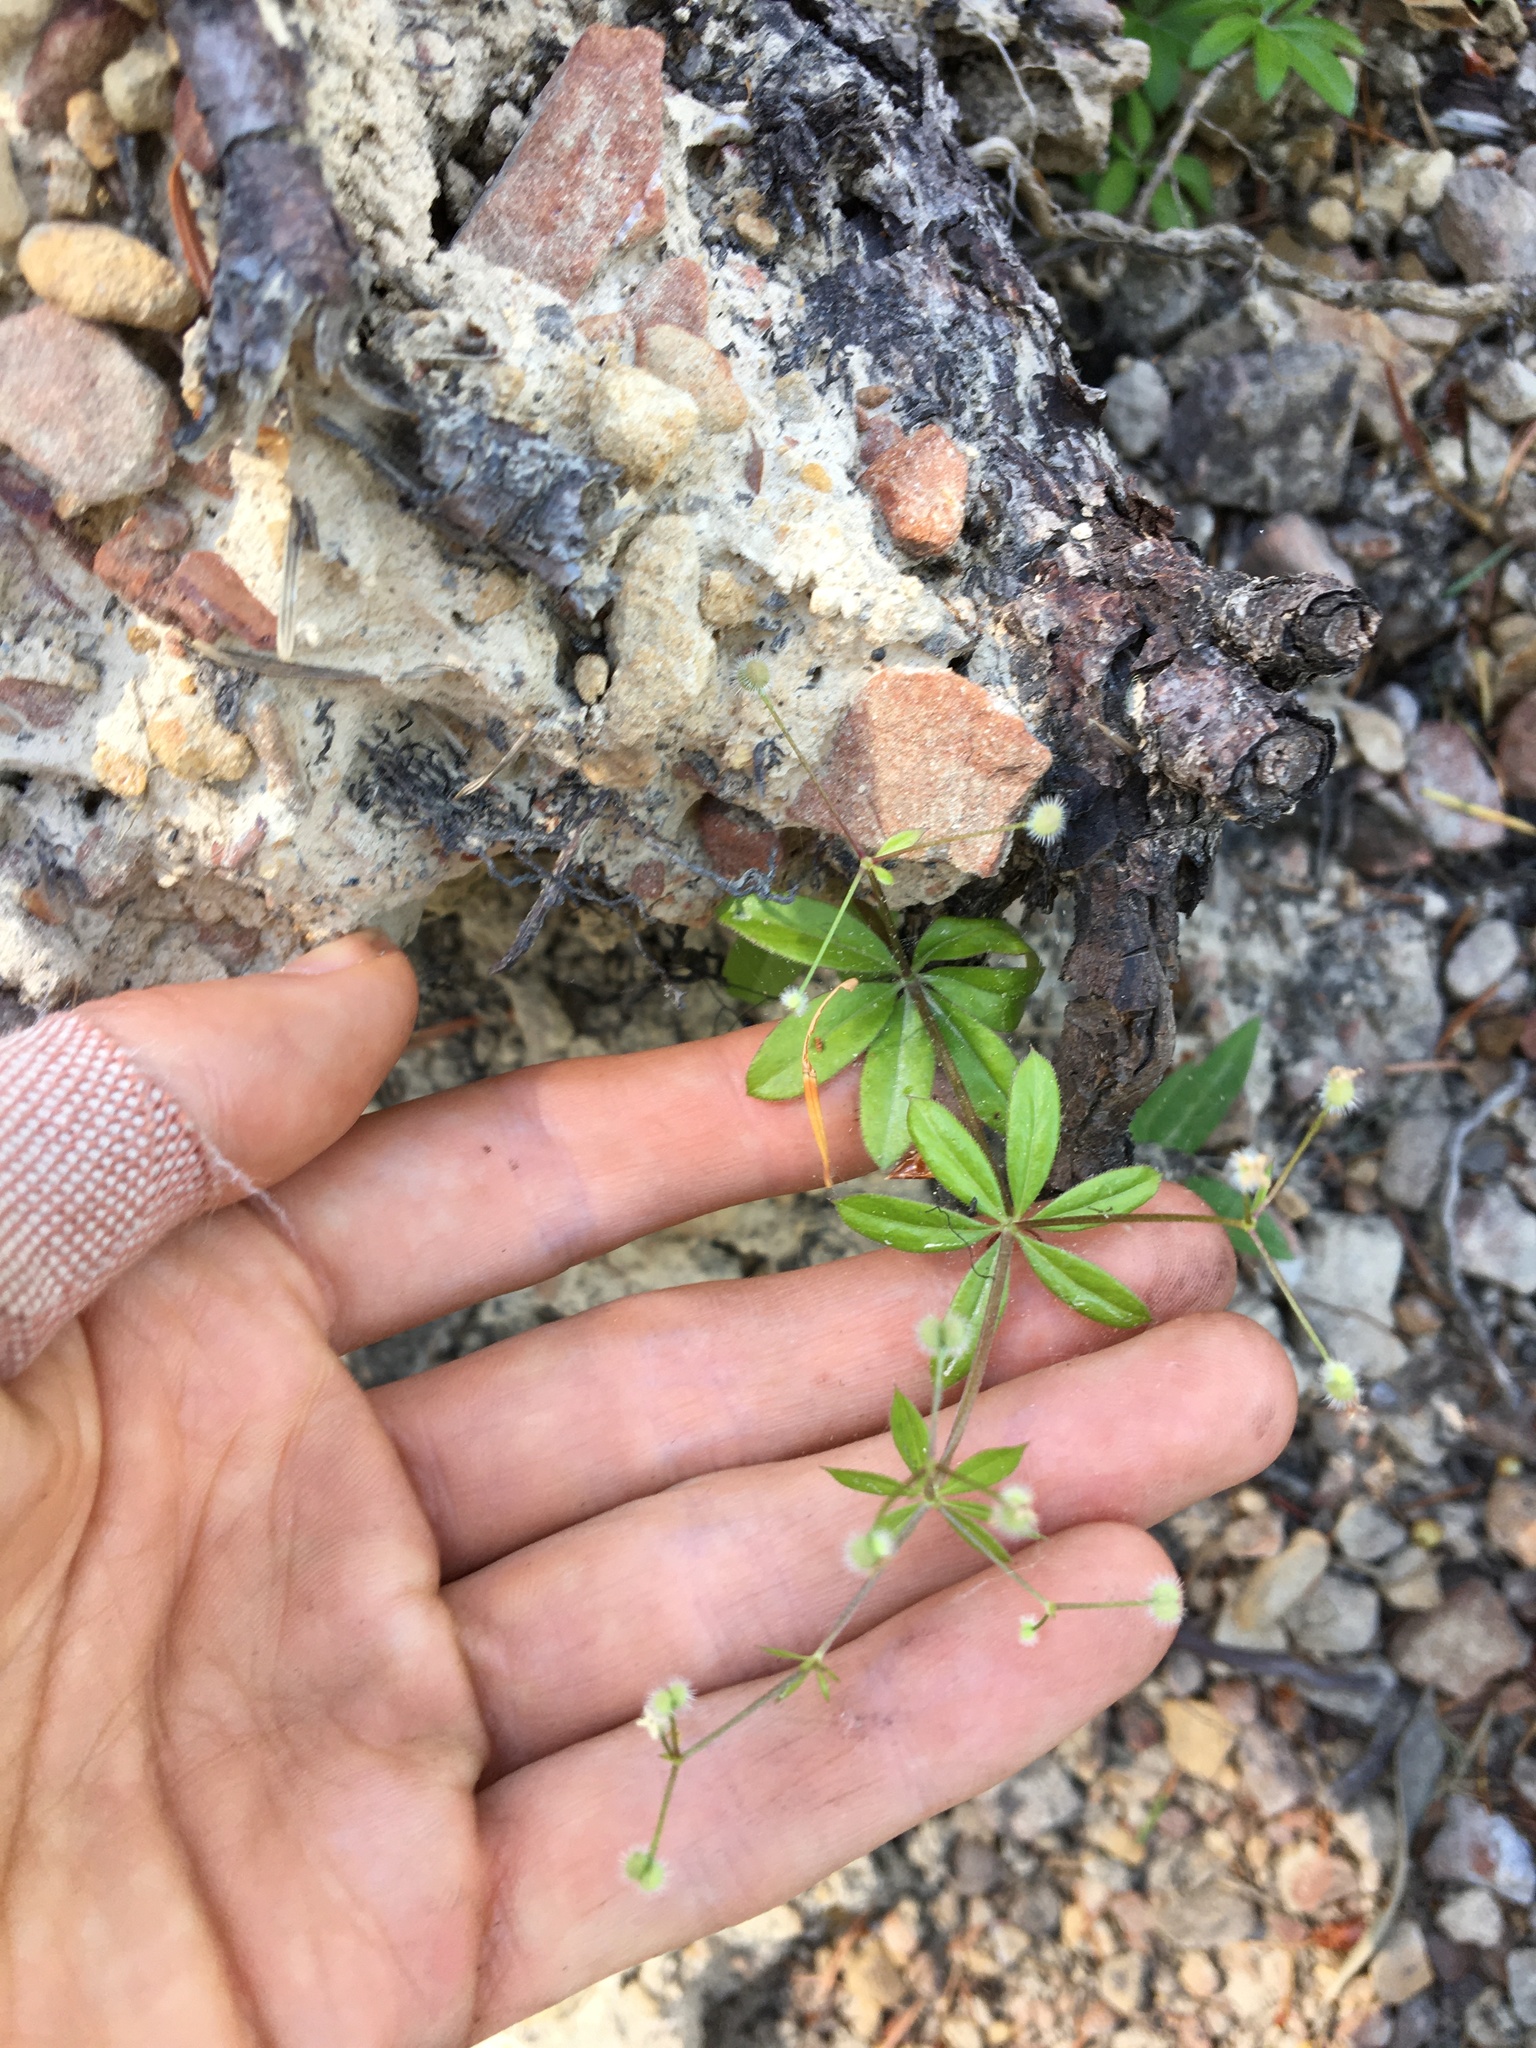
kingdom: Plantae
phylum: Tracheophyta
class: Magnoliopsida
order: Gentianales
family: Rubiaceae
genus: Galium
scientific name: Galium triflorum
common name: Fragrant bedstraw
